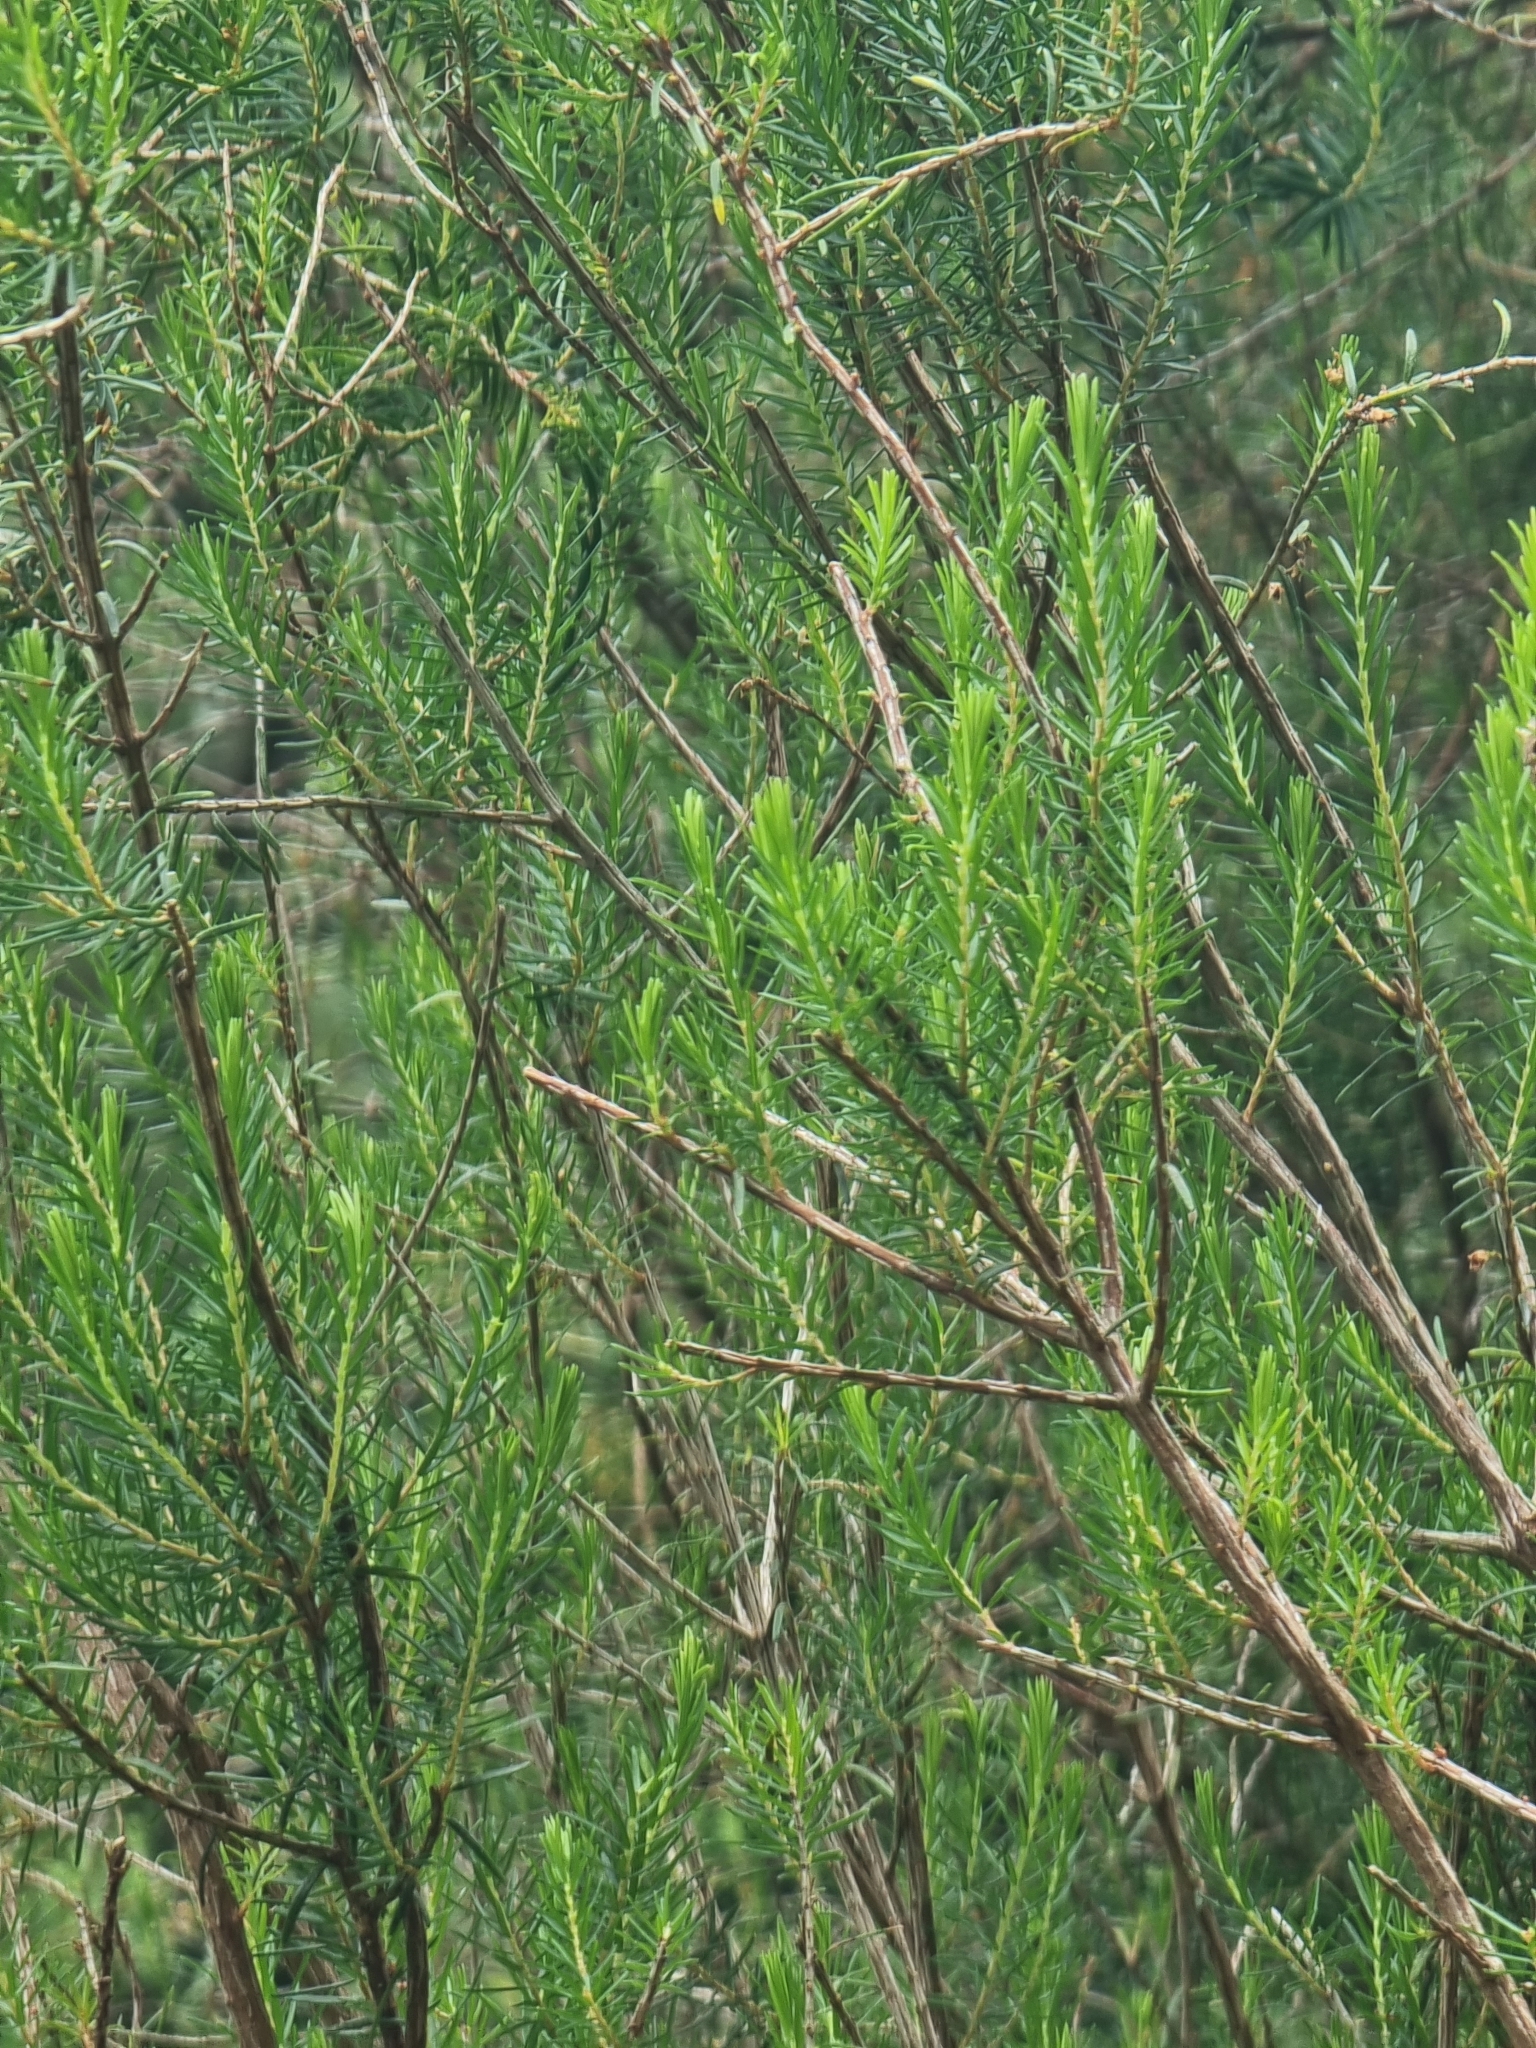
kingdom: Plantae
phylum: Tracheophyta
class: Magnoliopsida
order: Ericales
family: Ericaceae
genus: Erica
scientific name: Erica platycodon
